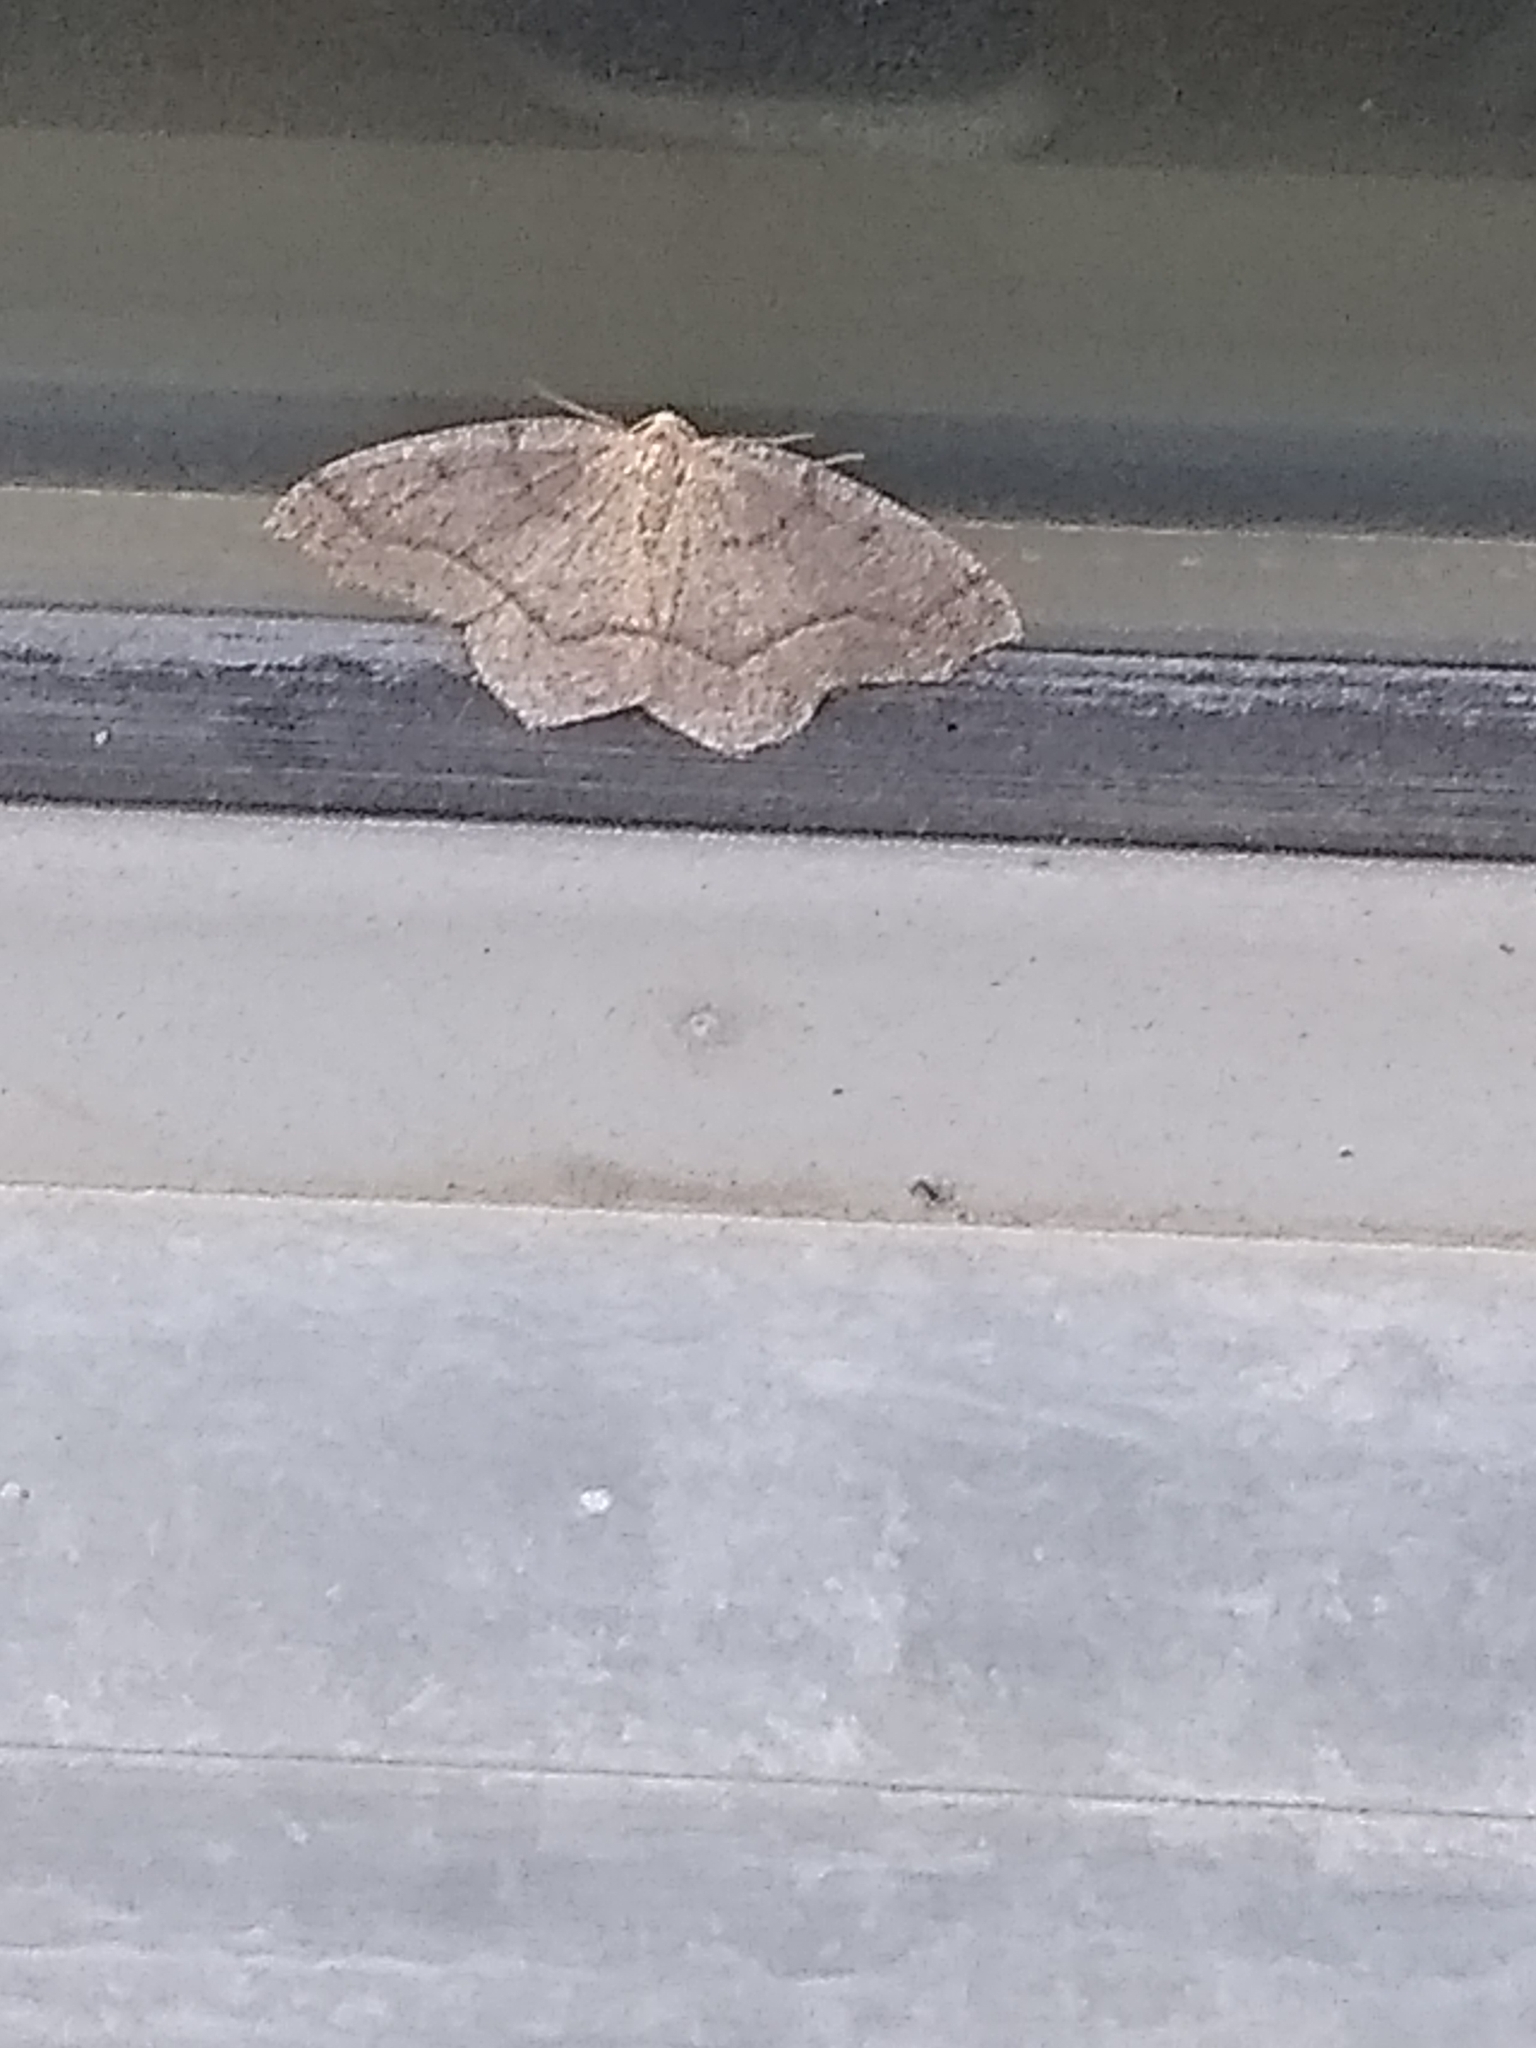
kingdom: Animalia
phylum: Arthropoda
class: Insecta
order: Lepidoptera
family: Geometridae
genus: Lambdina
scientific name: Lambdina fiscellaria
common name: Hemlock looper
